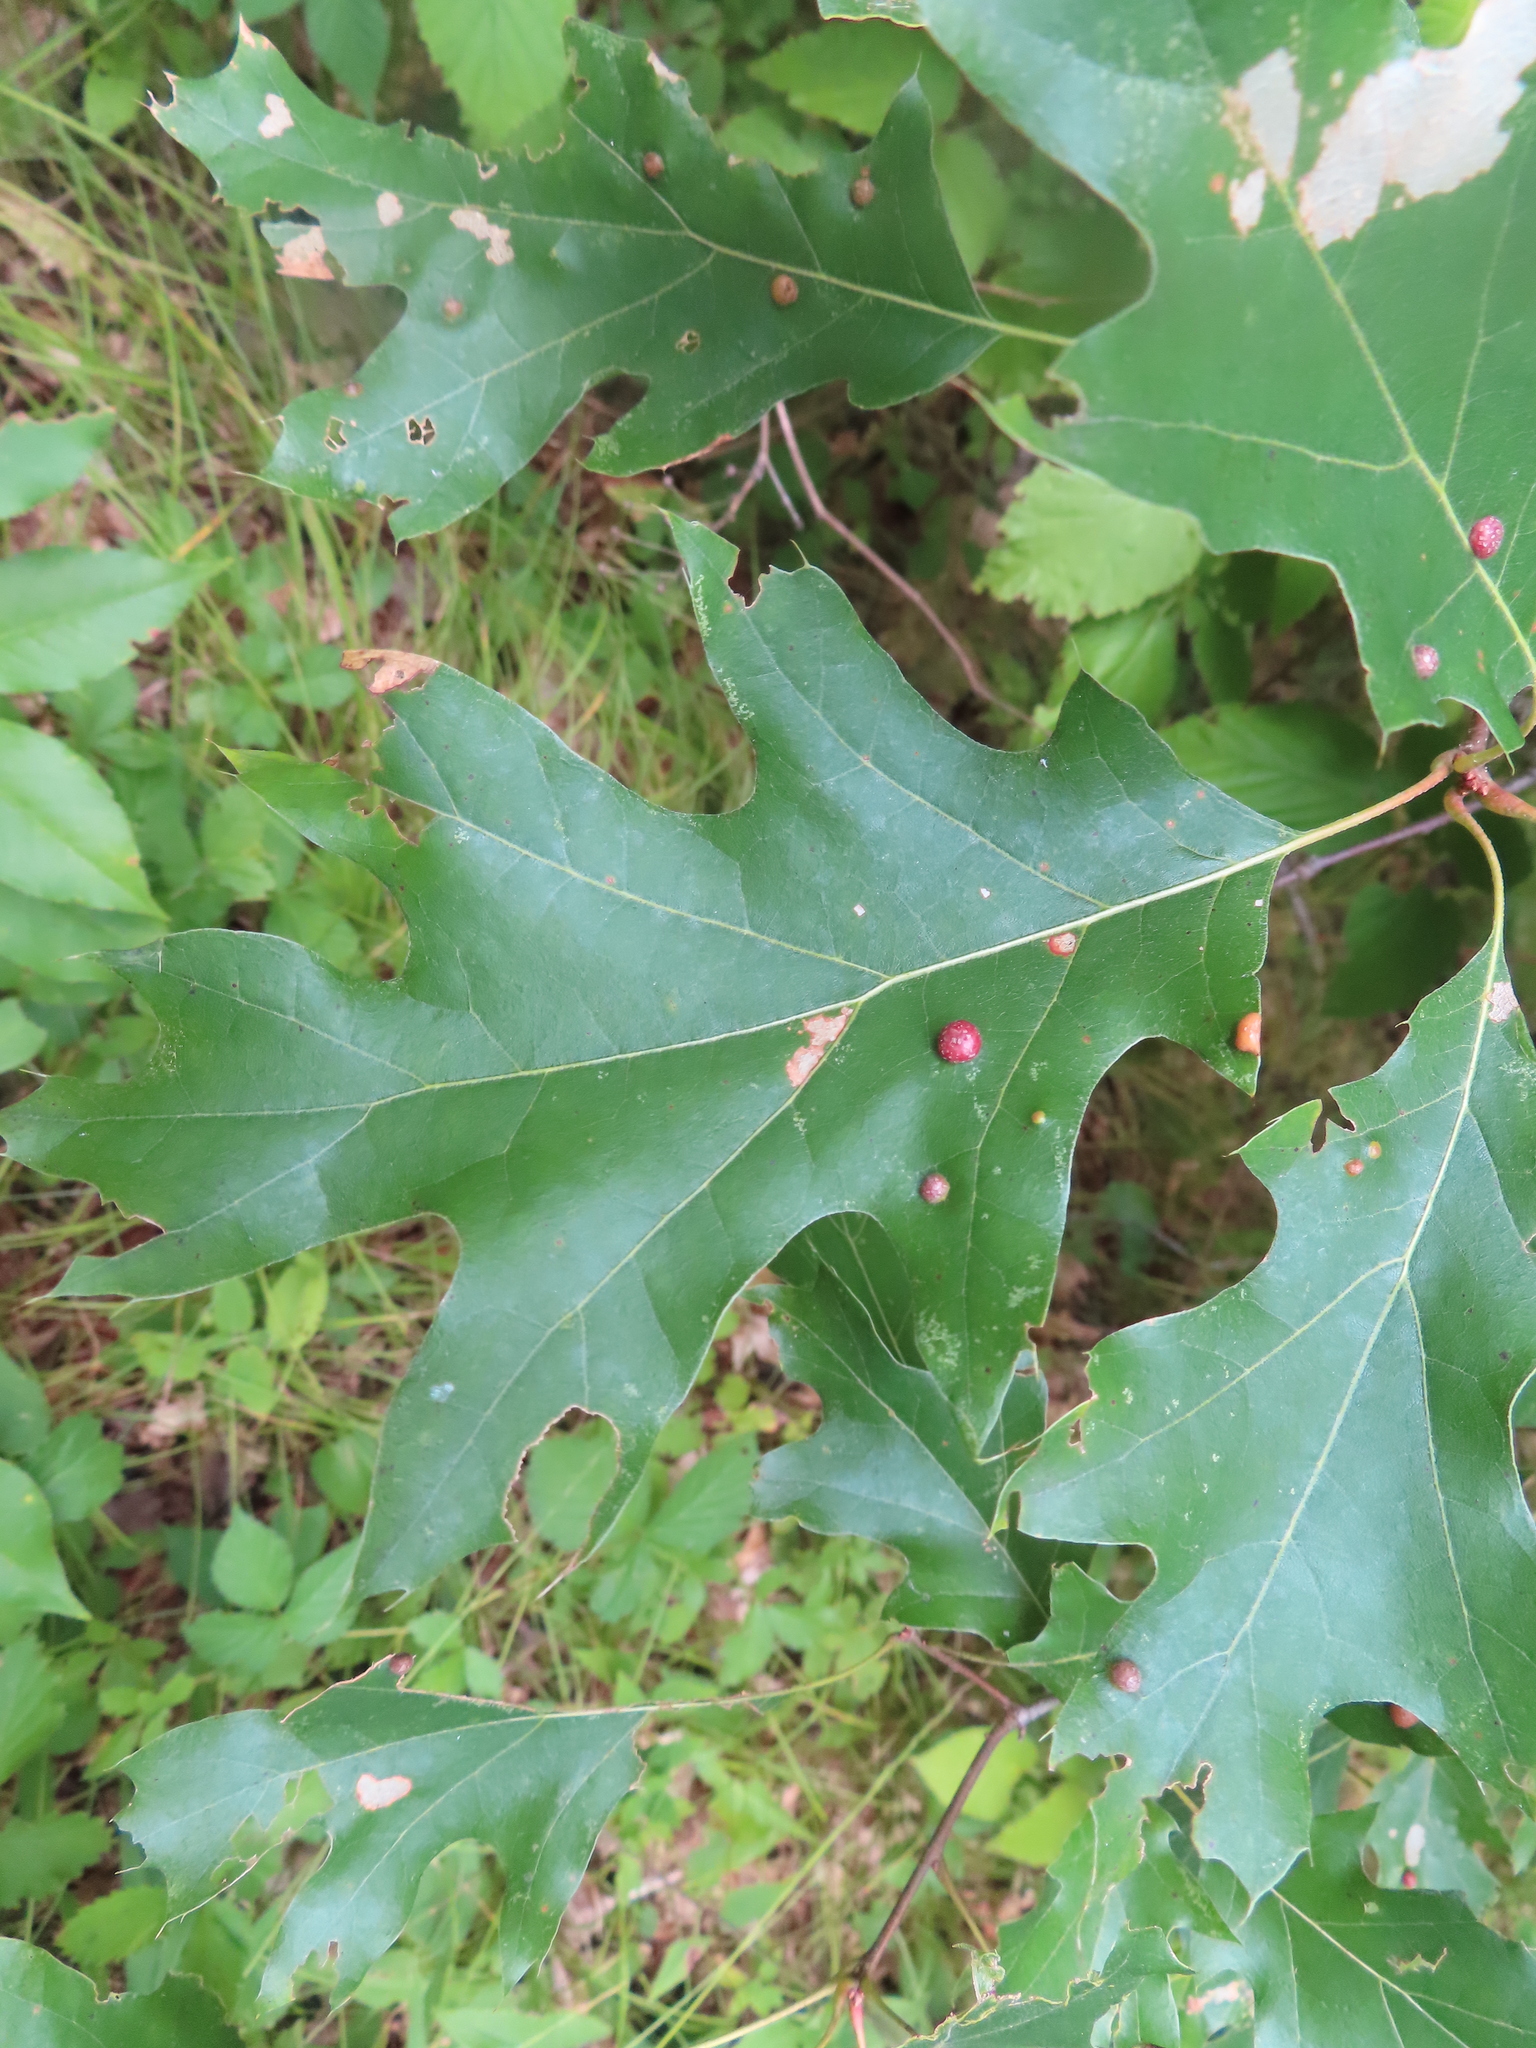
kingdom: Animalia
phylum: Arthropoda
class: Insecta
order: Diptera
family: Cecidomyiidae
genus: Polystepha
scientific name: Polystepha pilulae
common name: Oak leaf gall midge
